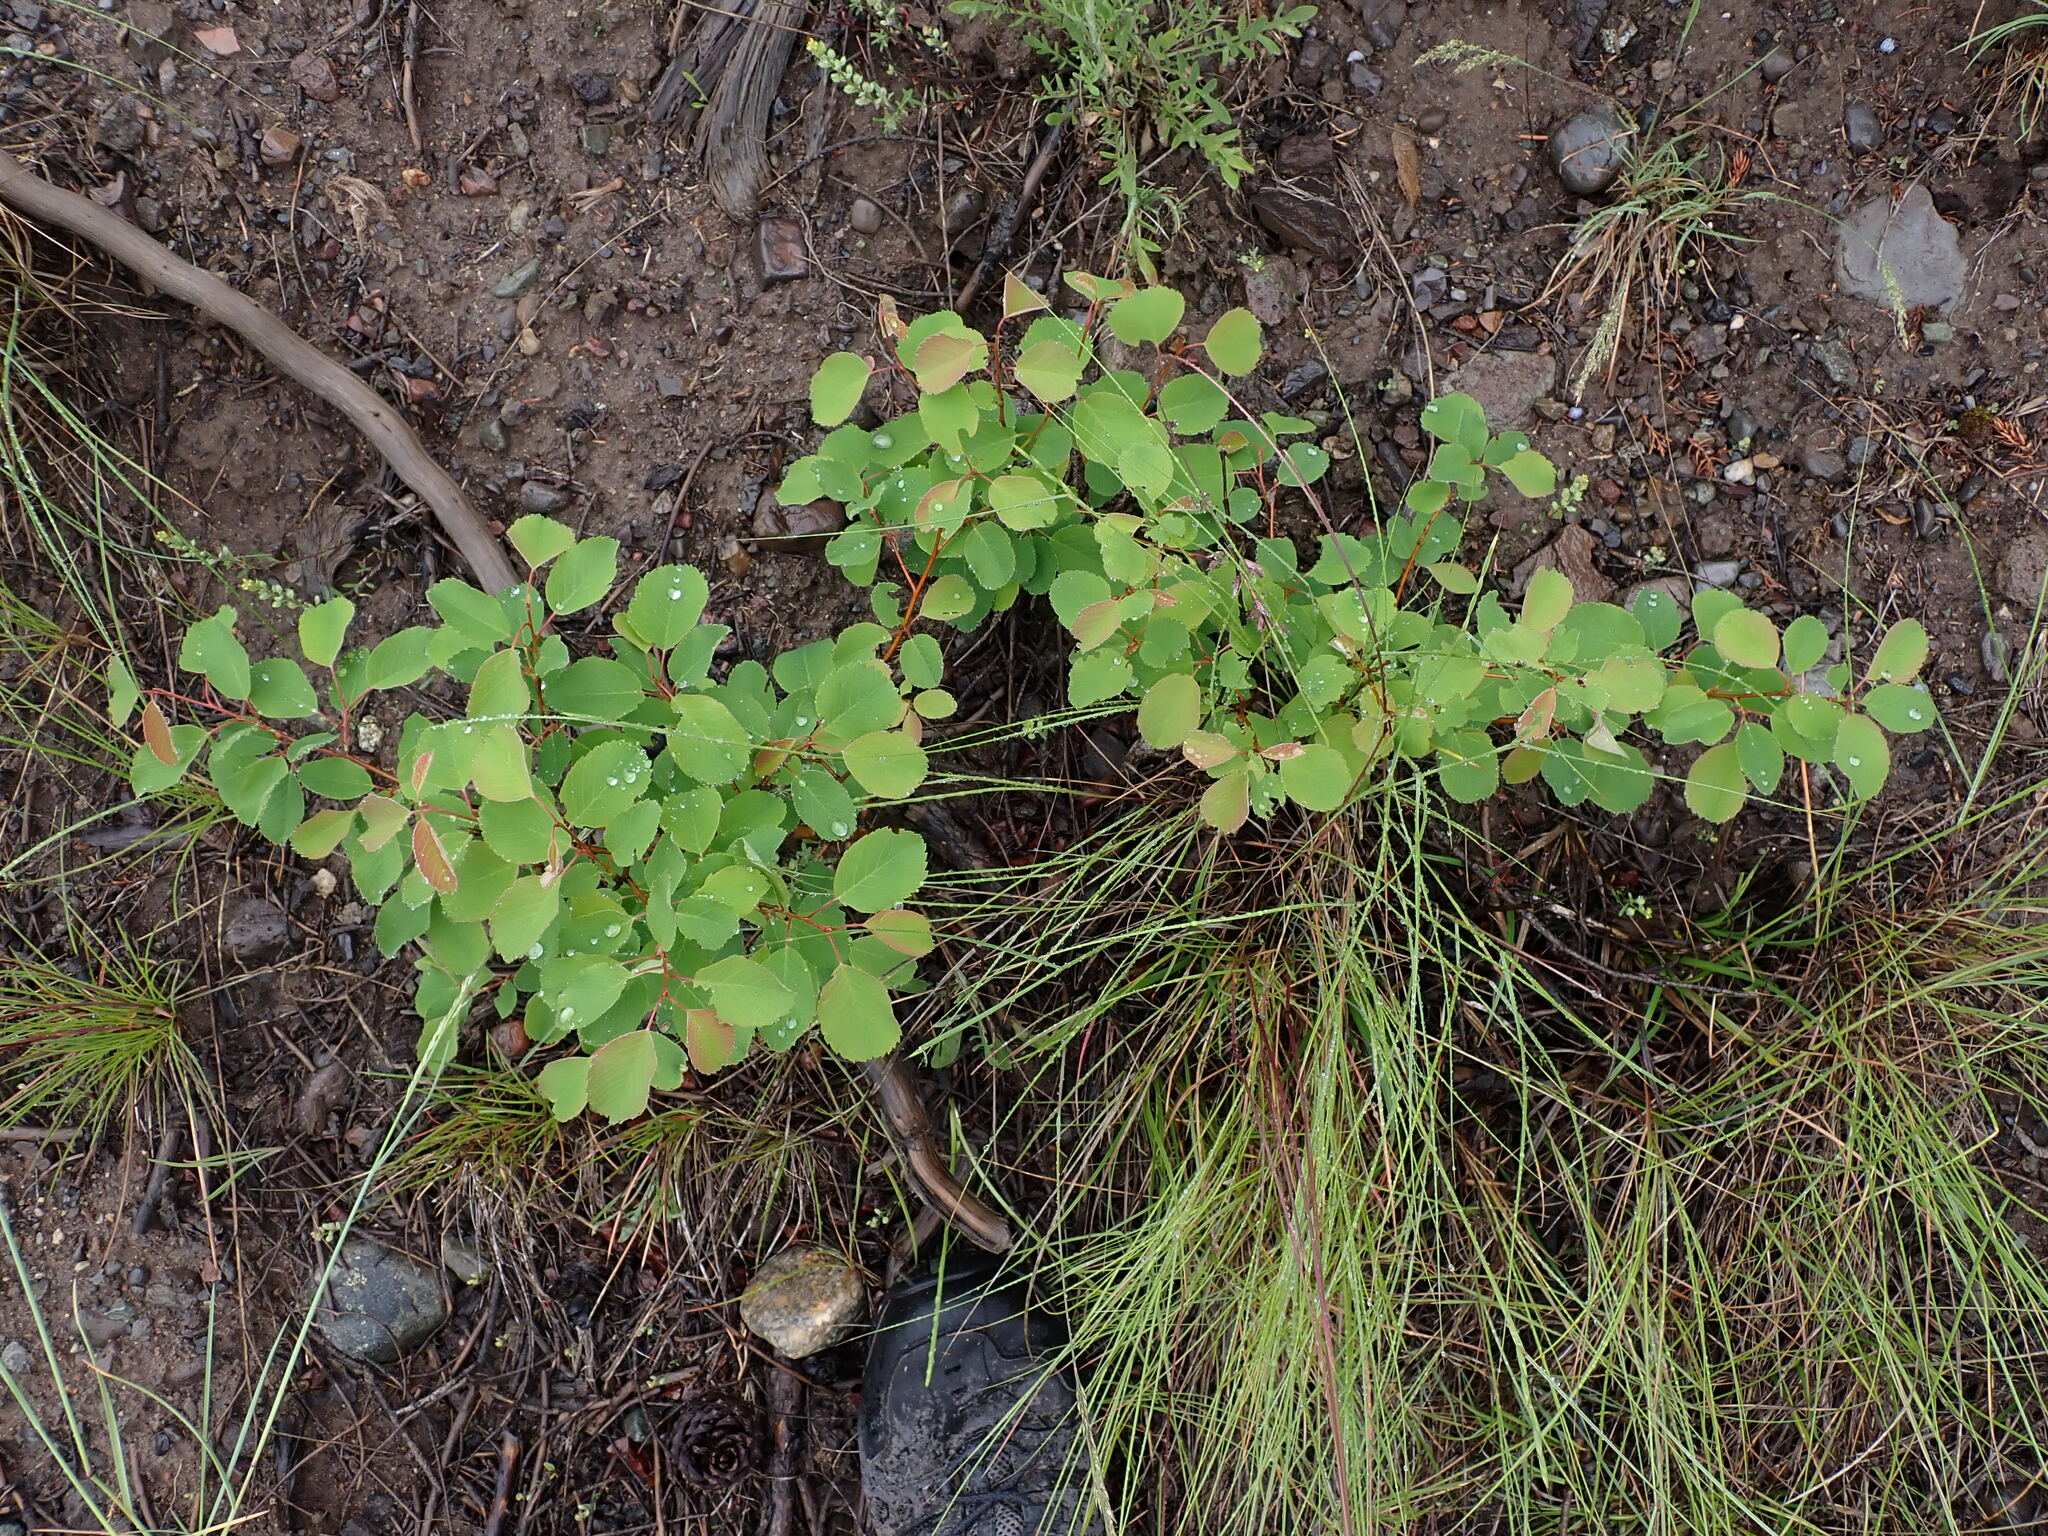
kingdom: Plantae
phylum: Tracheophyta
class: Magnoliopsida
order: Rosales
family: Rosaceae
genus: Amelanchier
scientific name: Amelanchier alnifolia
